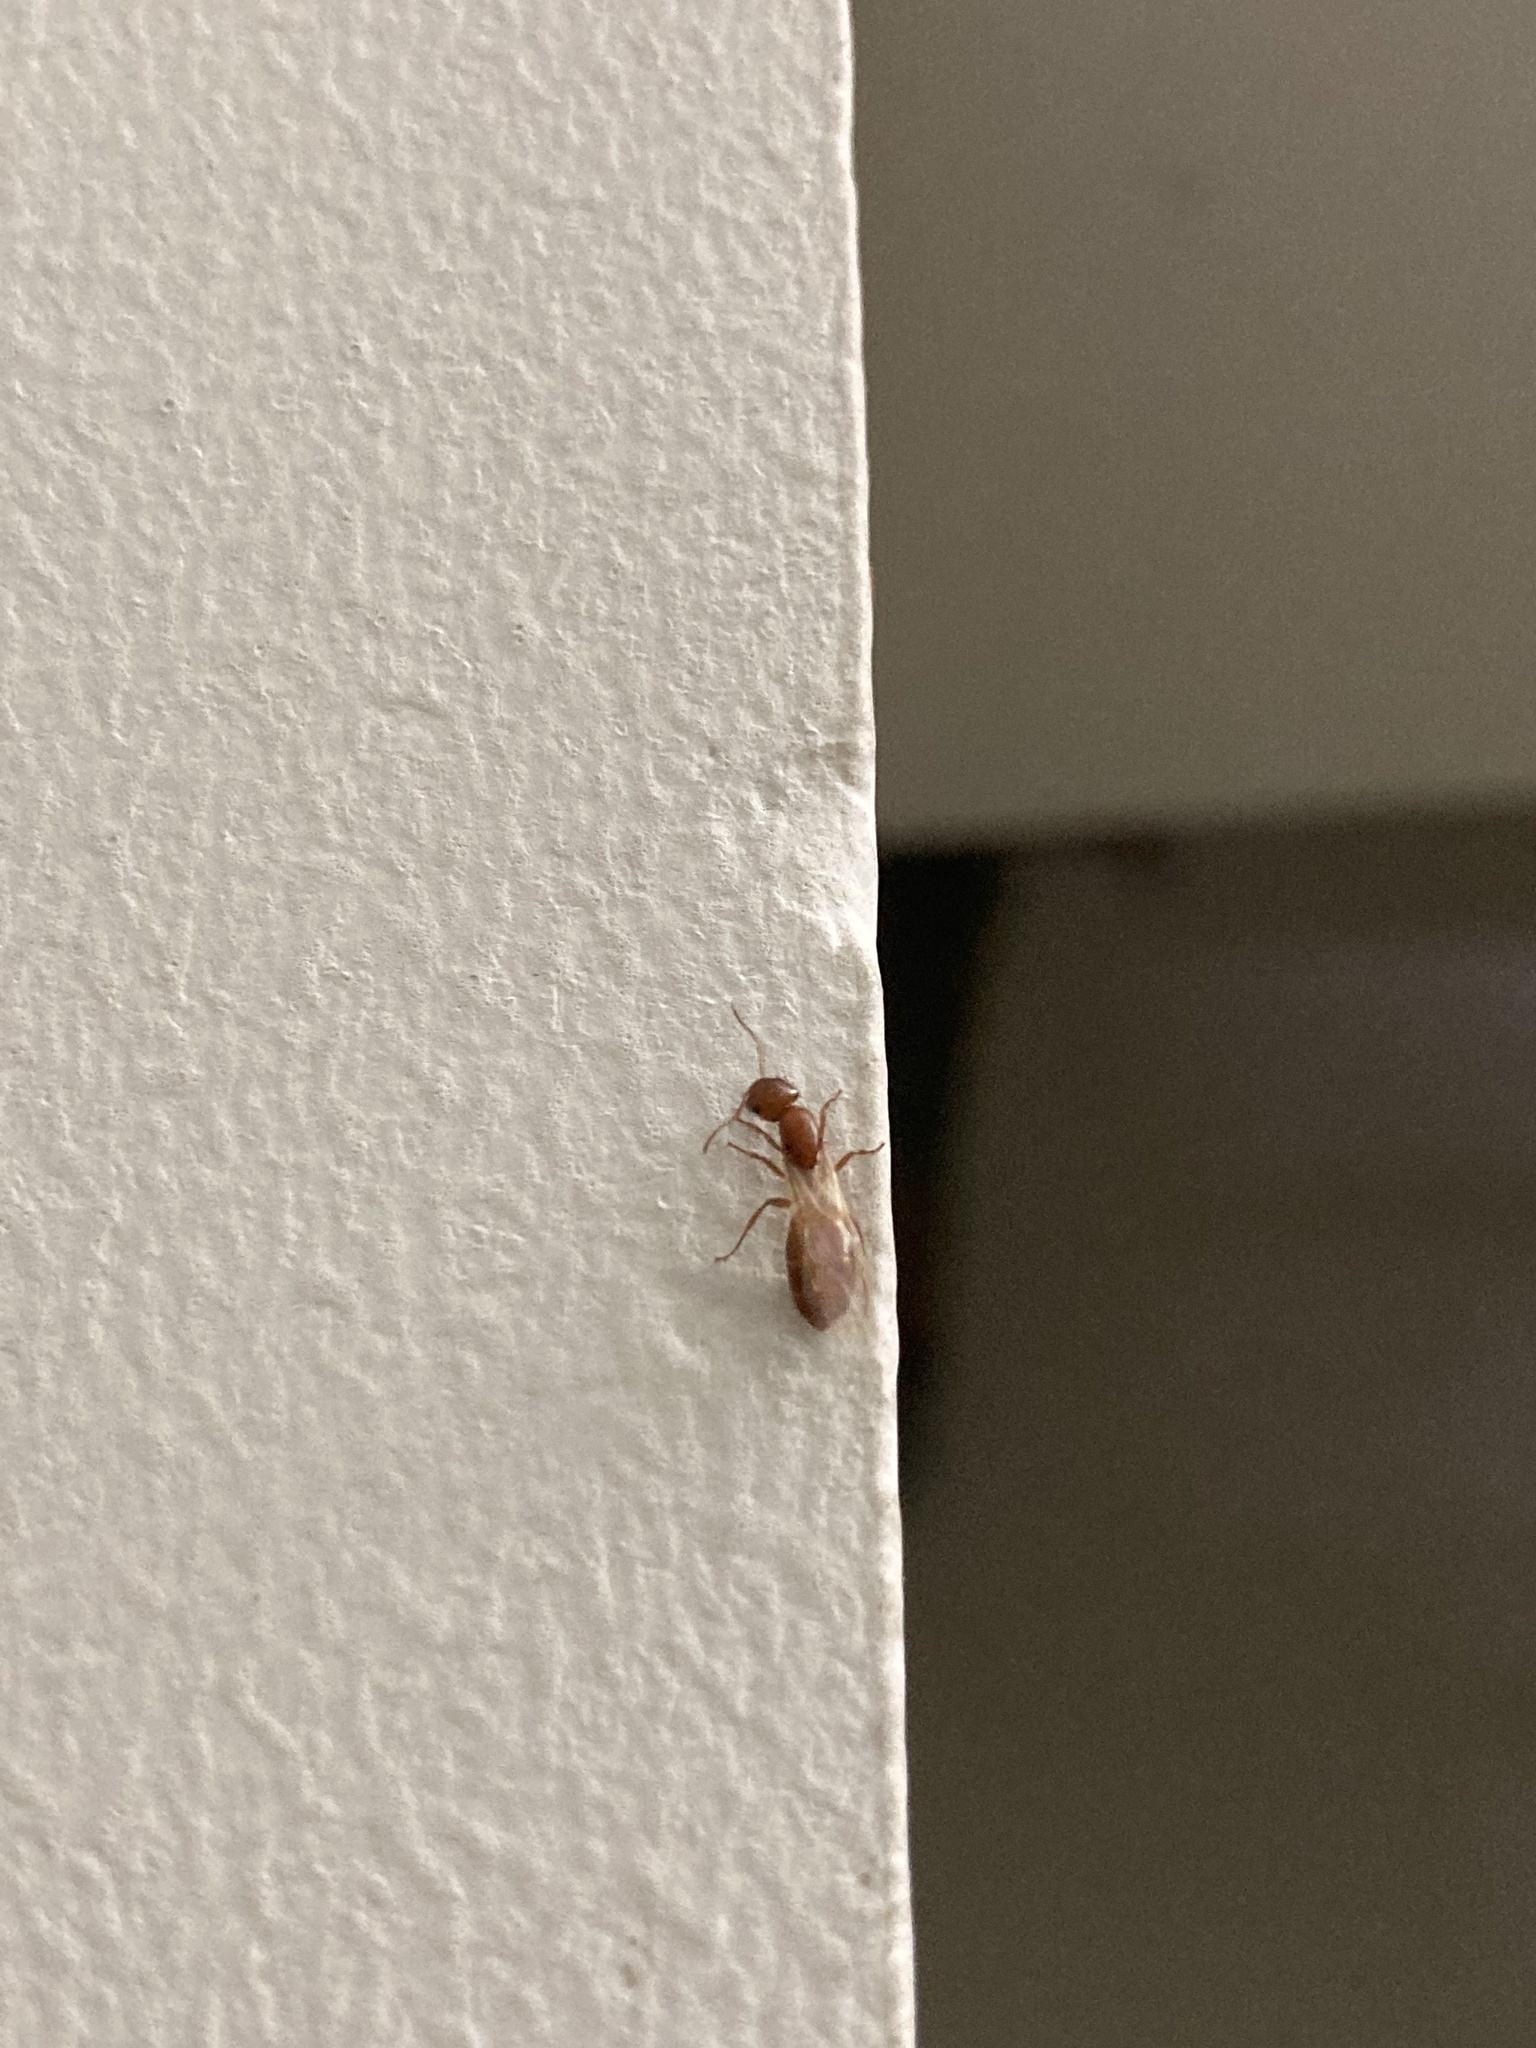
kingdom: Animalia
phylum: Arthropoda
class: Insecta
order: Hymenoptera
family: Formicidae
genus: Solenopsis
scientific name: Solenopsis geminata
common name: Tropical fire ant
